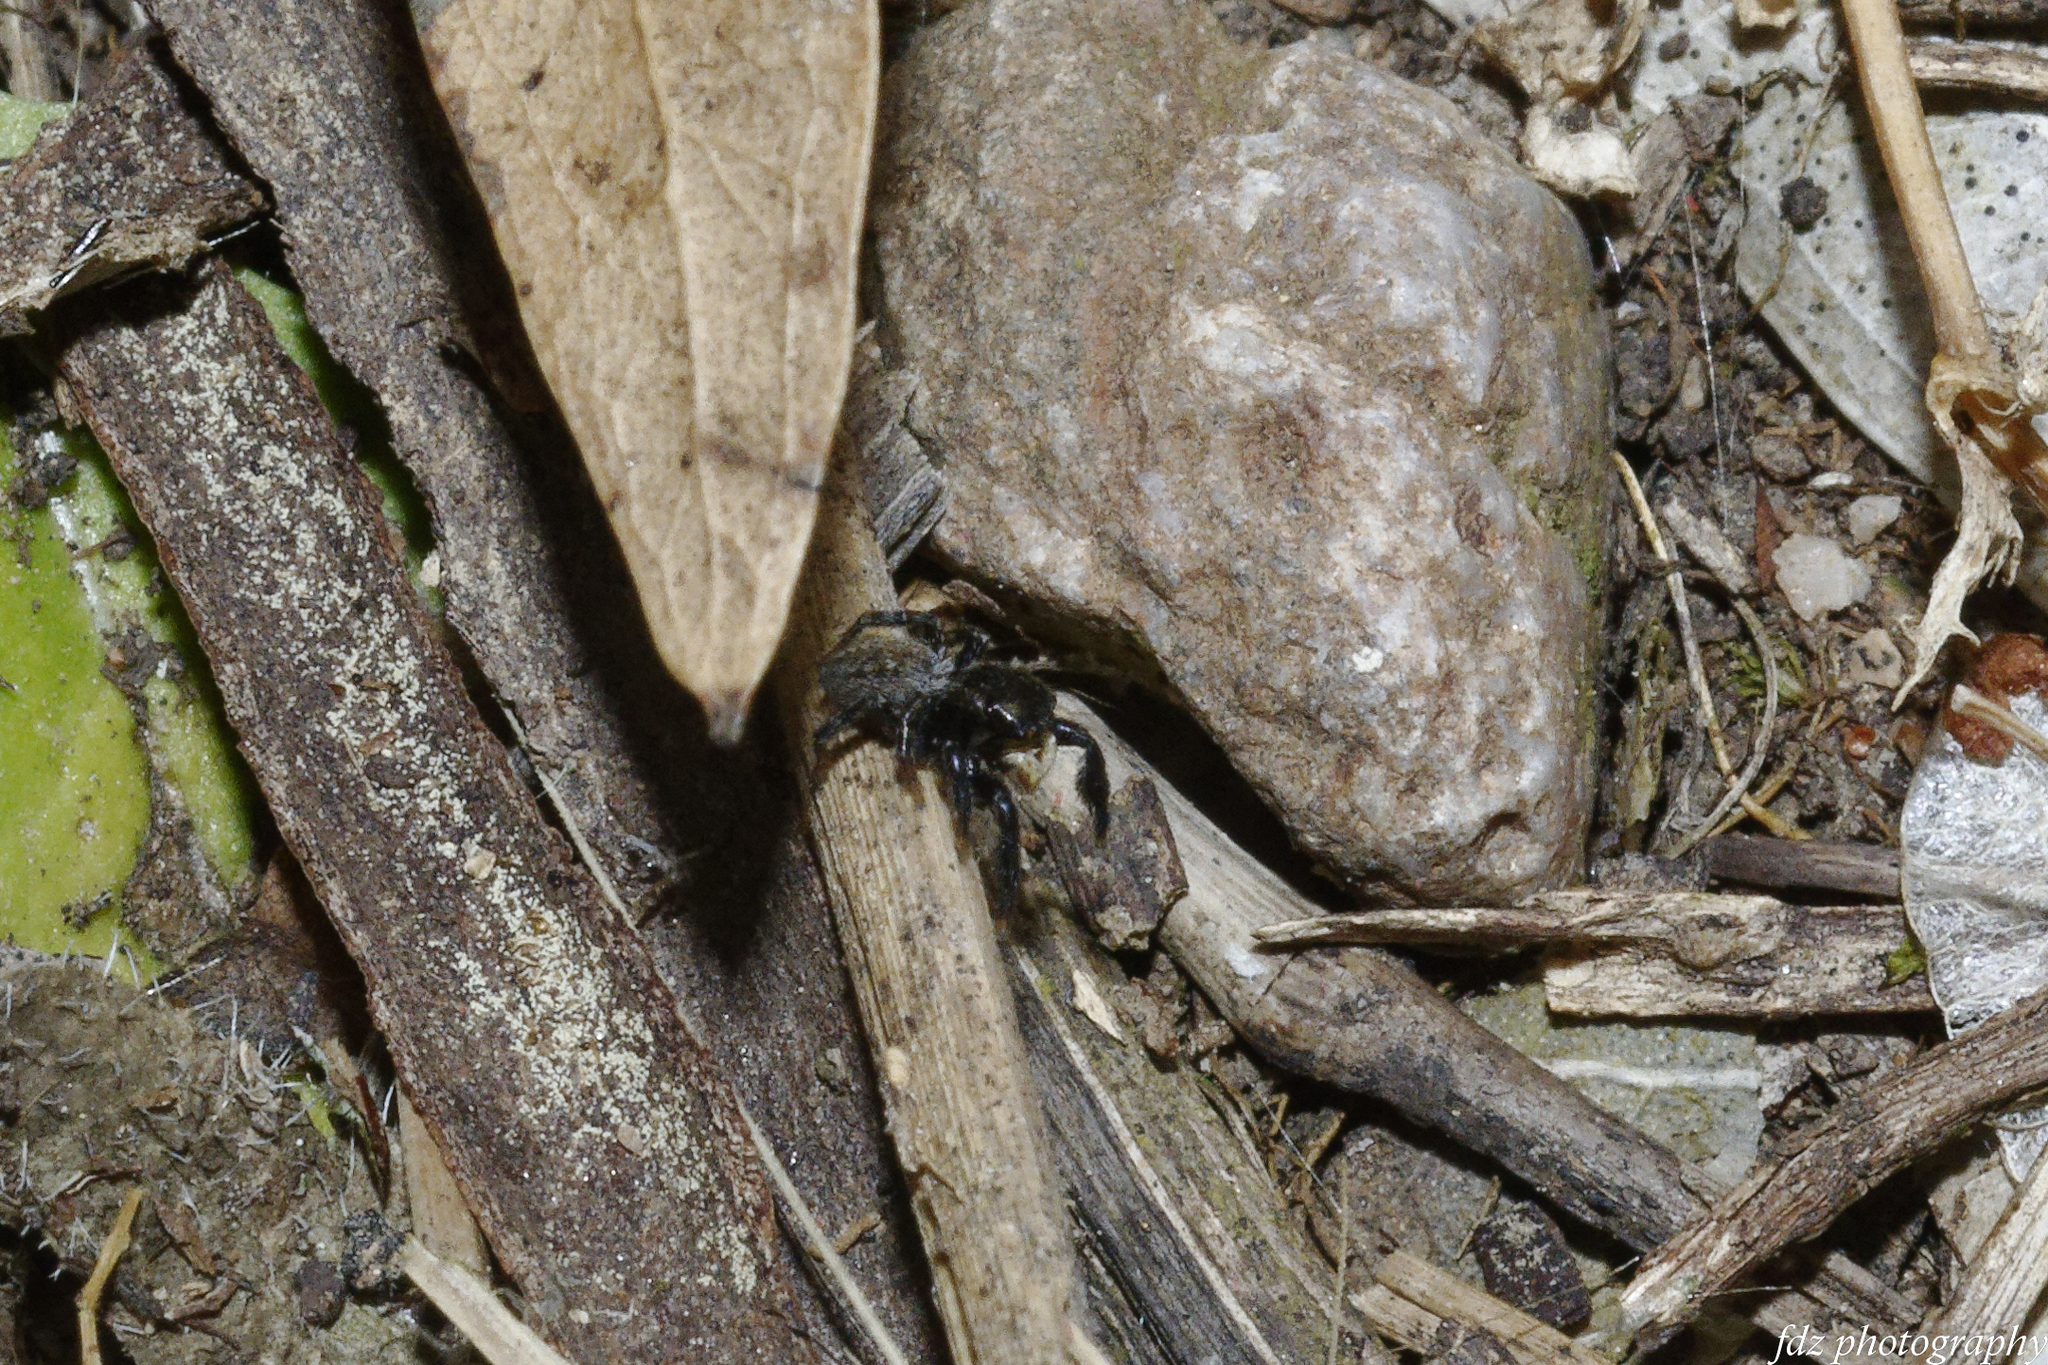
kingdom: Animalia
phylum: Arthropoda
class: Arachnida
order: Araneae
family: Salticidae
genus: Euophrys
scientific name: Euophrys herbigrada
